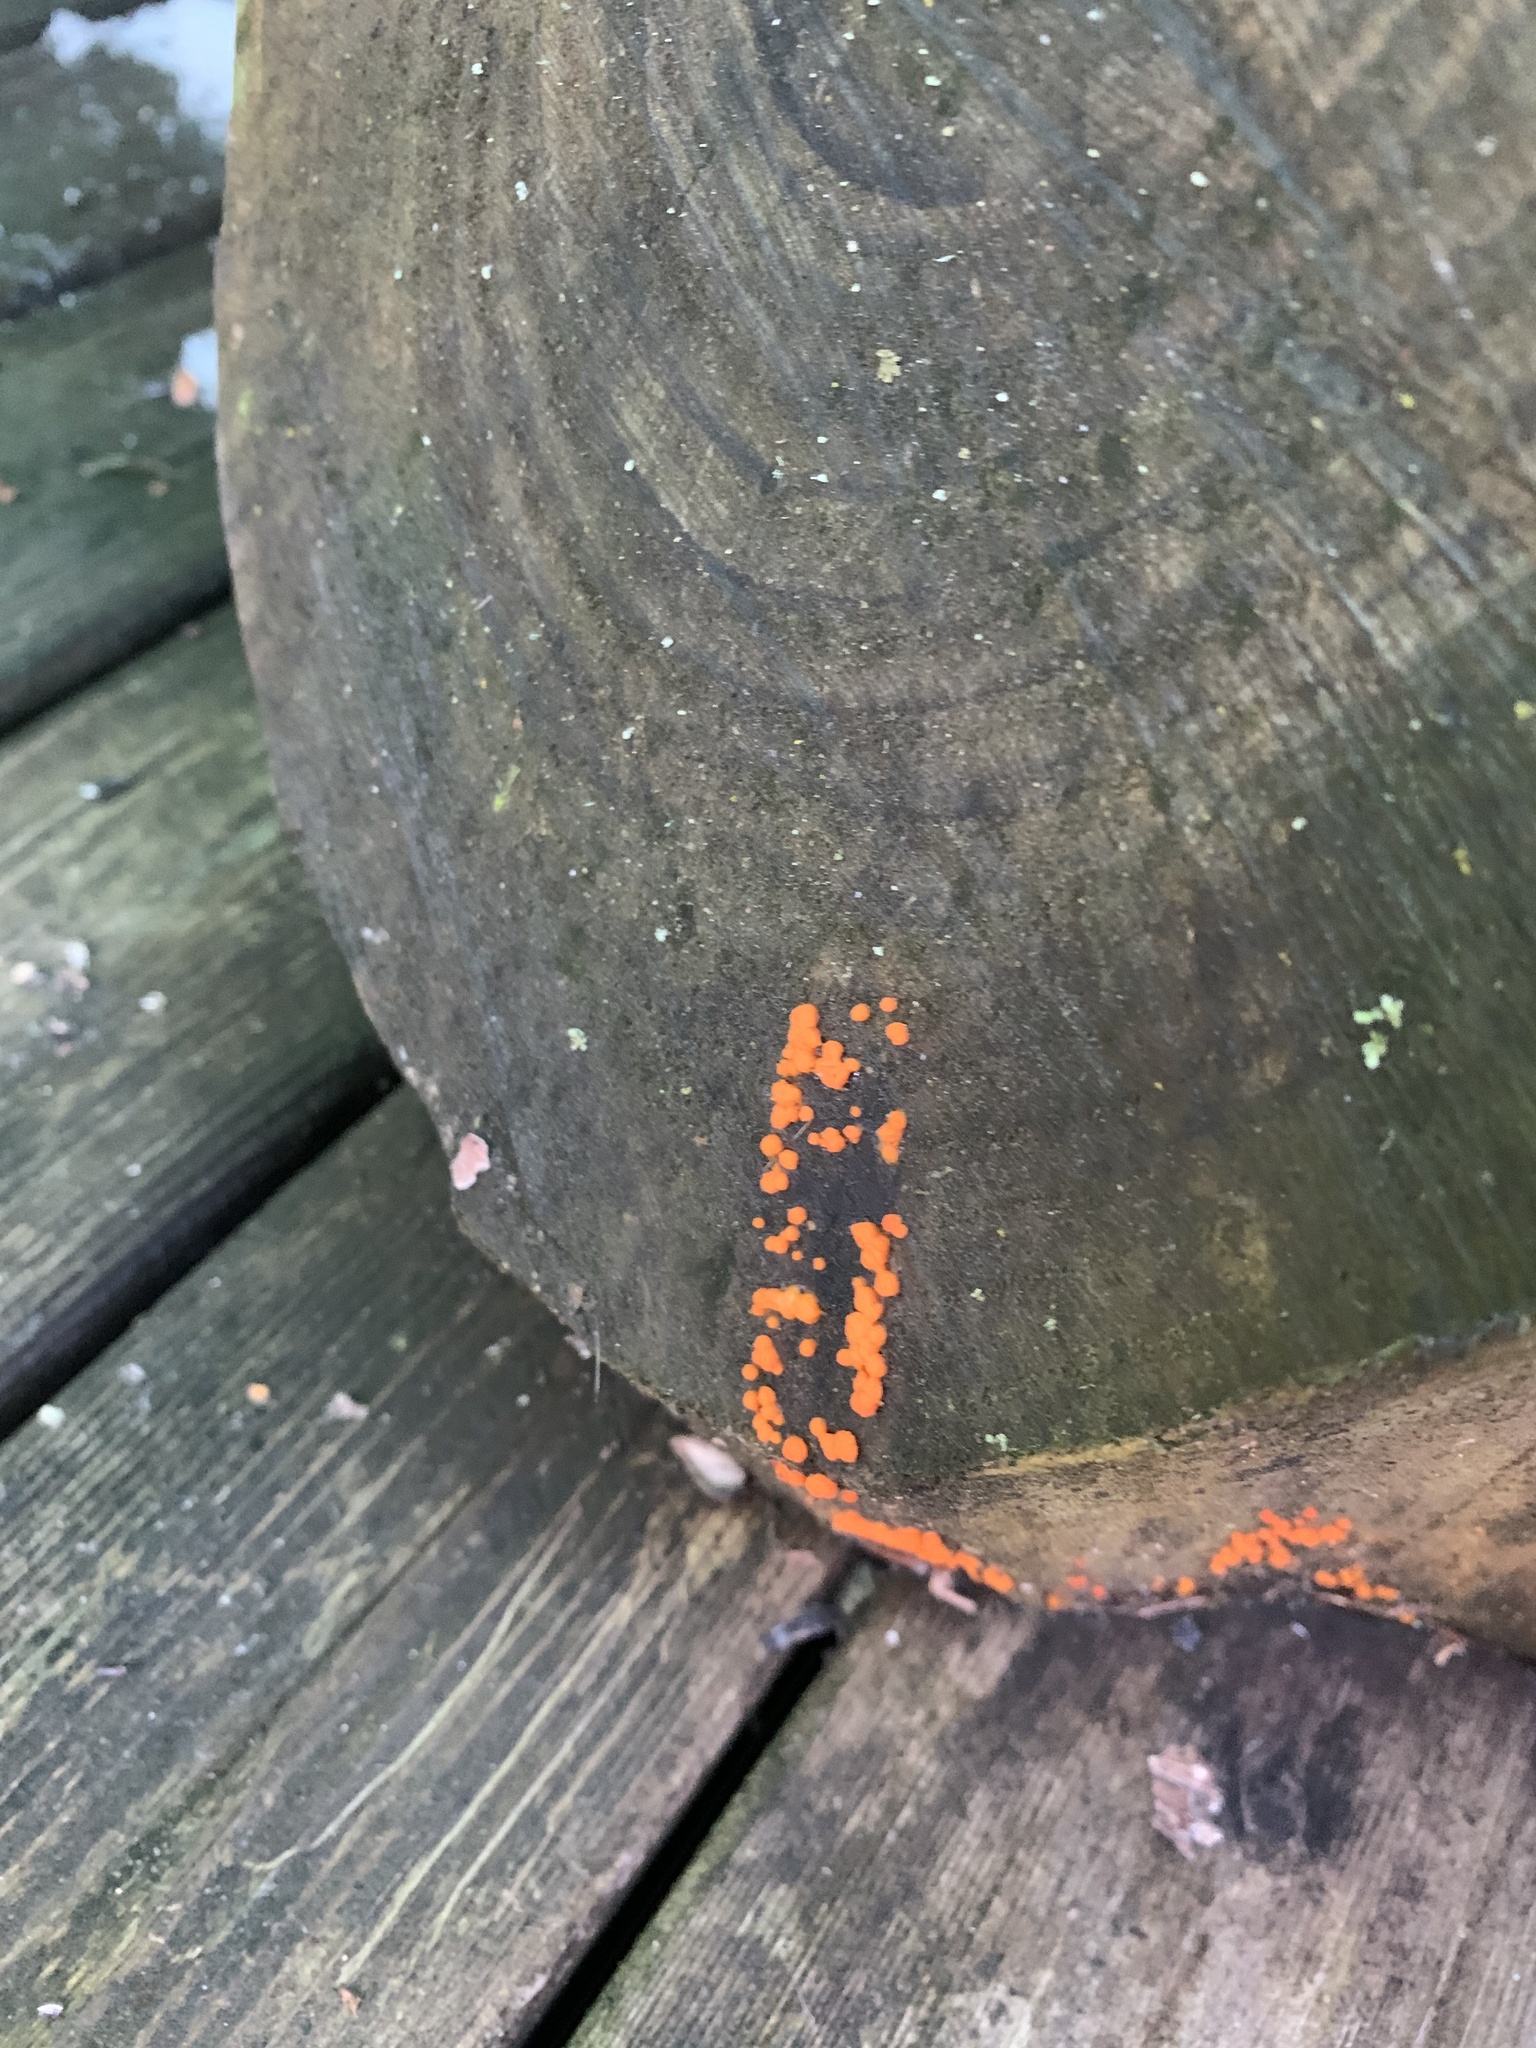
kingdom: Fungi
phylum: Basidiomycota
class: Dacrymycetes
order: Dacrymycetales
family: Dacrymycetaceae
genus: Dacrymyces
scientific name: Dacrymyces stillatus
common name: Common jelly spot
